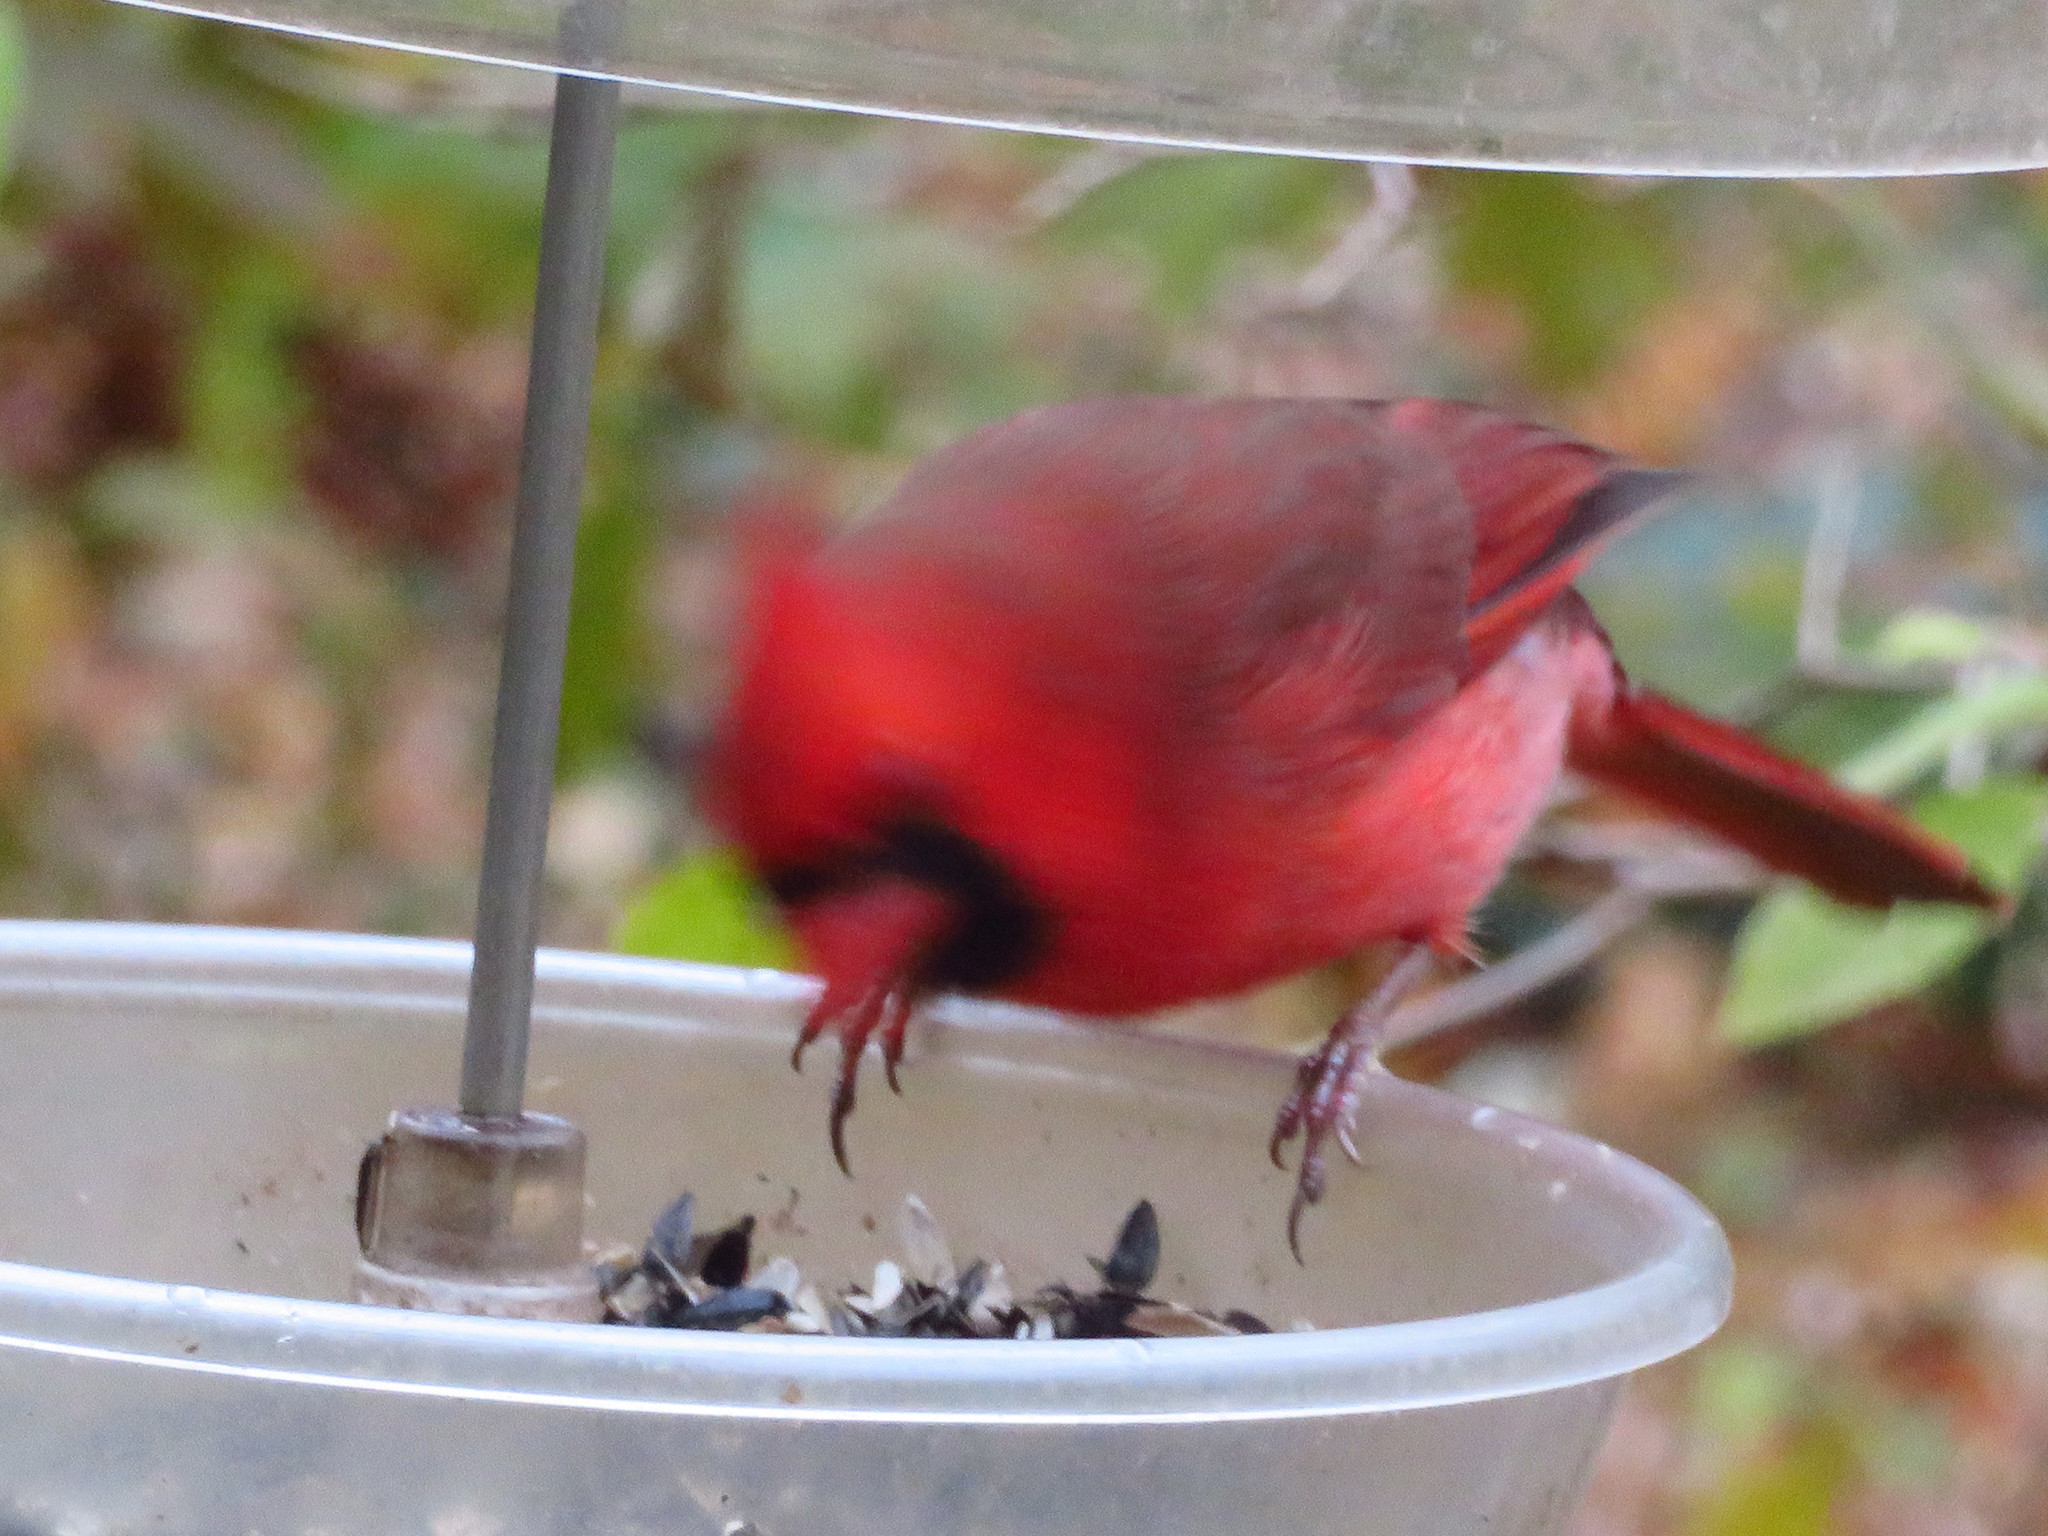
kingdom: Animalia
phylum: Chordata
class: Aves
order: Passeriformes
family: Cardinalidae
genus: Cardinalis
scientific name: Cardinalis cardinalis
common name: Northern cardinal
